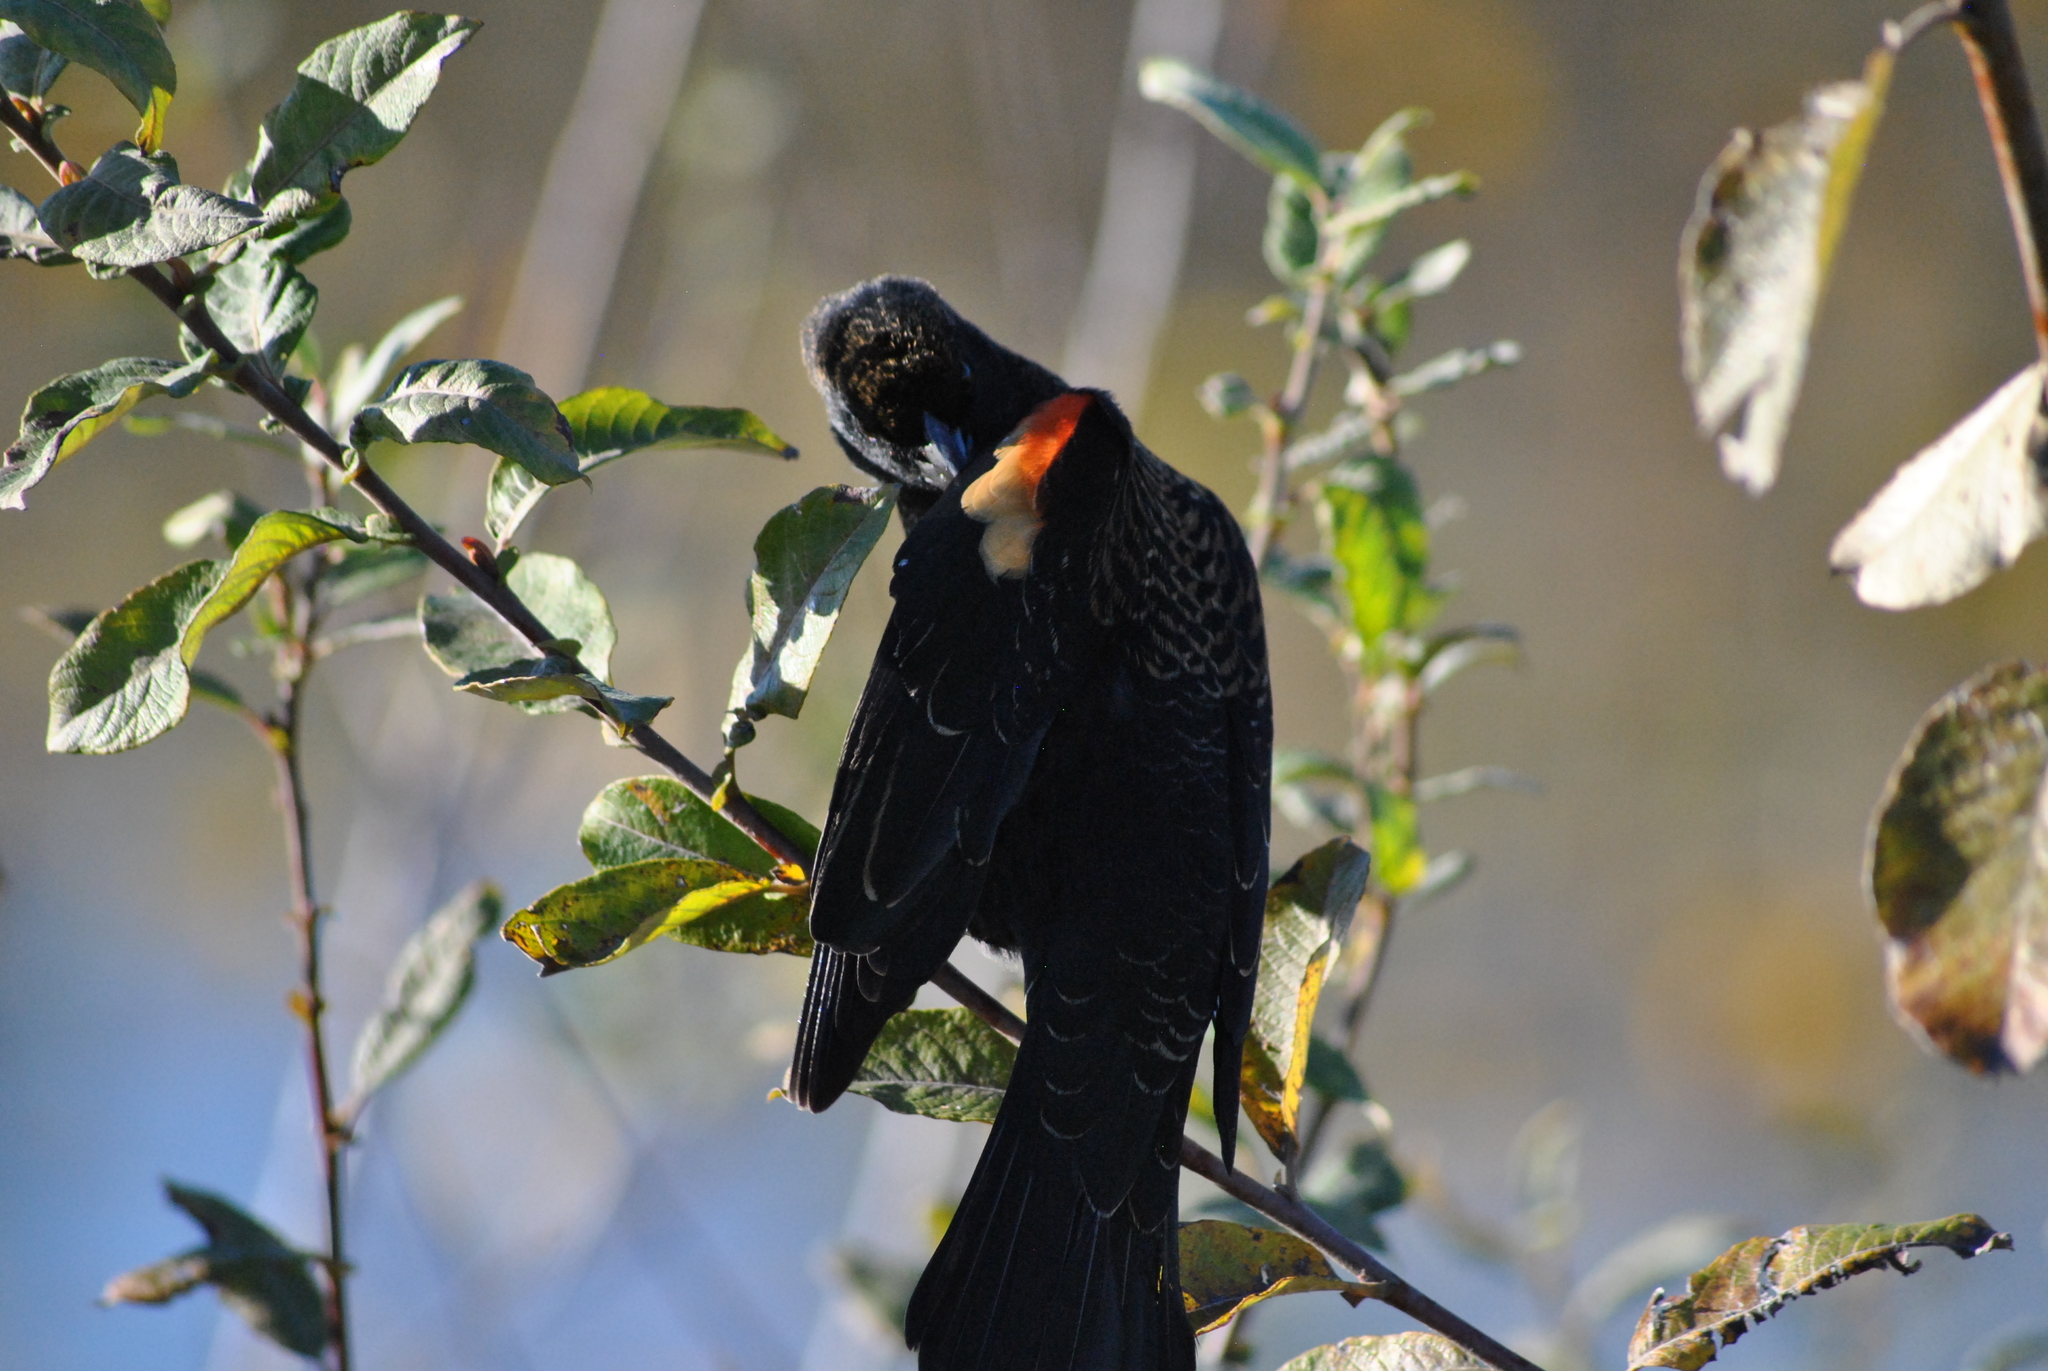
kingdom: Animalia
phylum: Chordata
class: Aves
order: Passeriformes
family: Icteridae
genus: Agelaius
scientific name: Agelaius phoeniceus
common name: Red-winged blackbird
